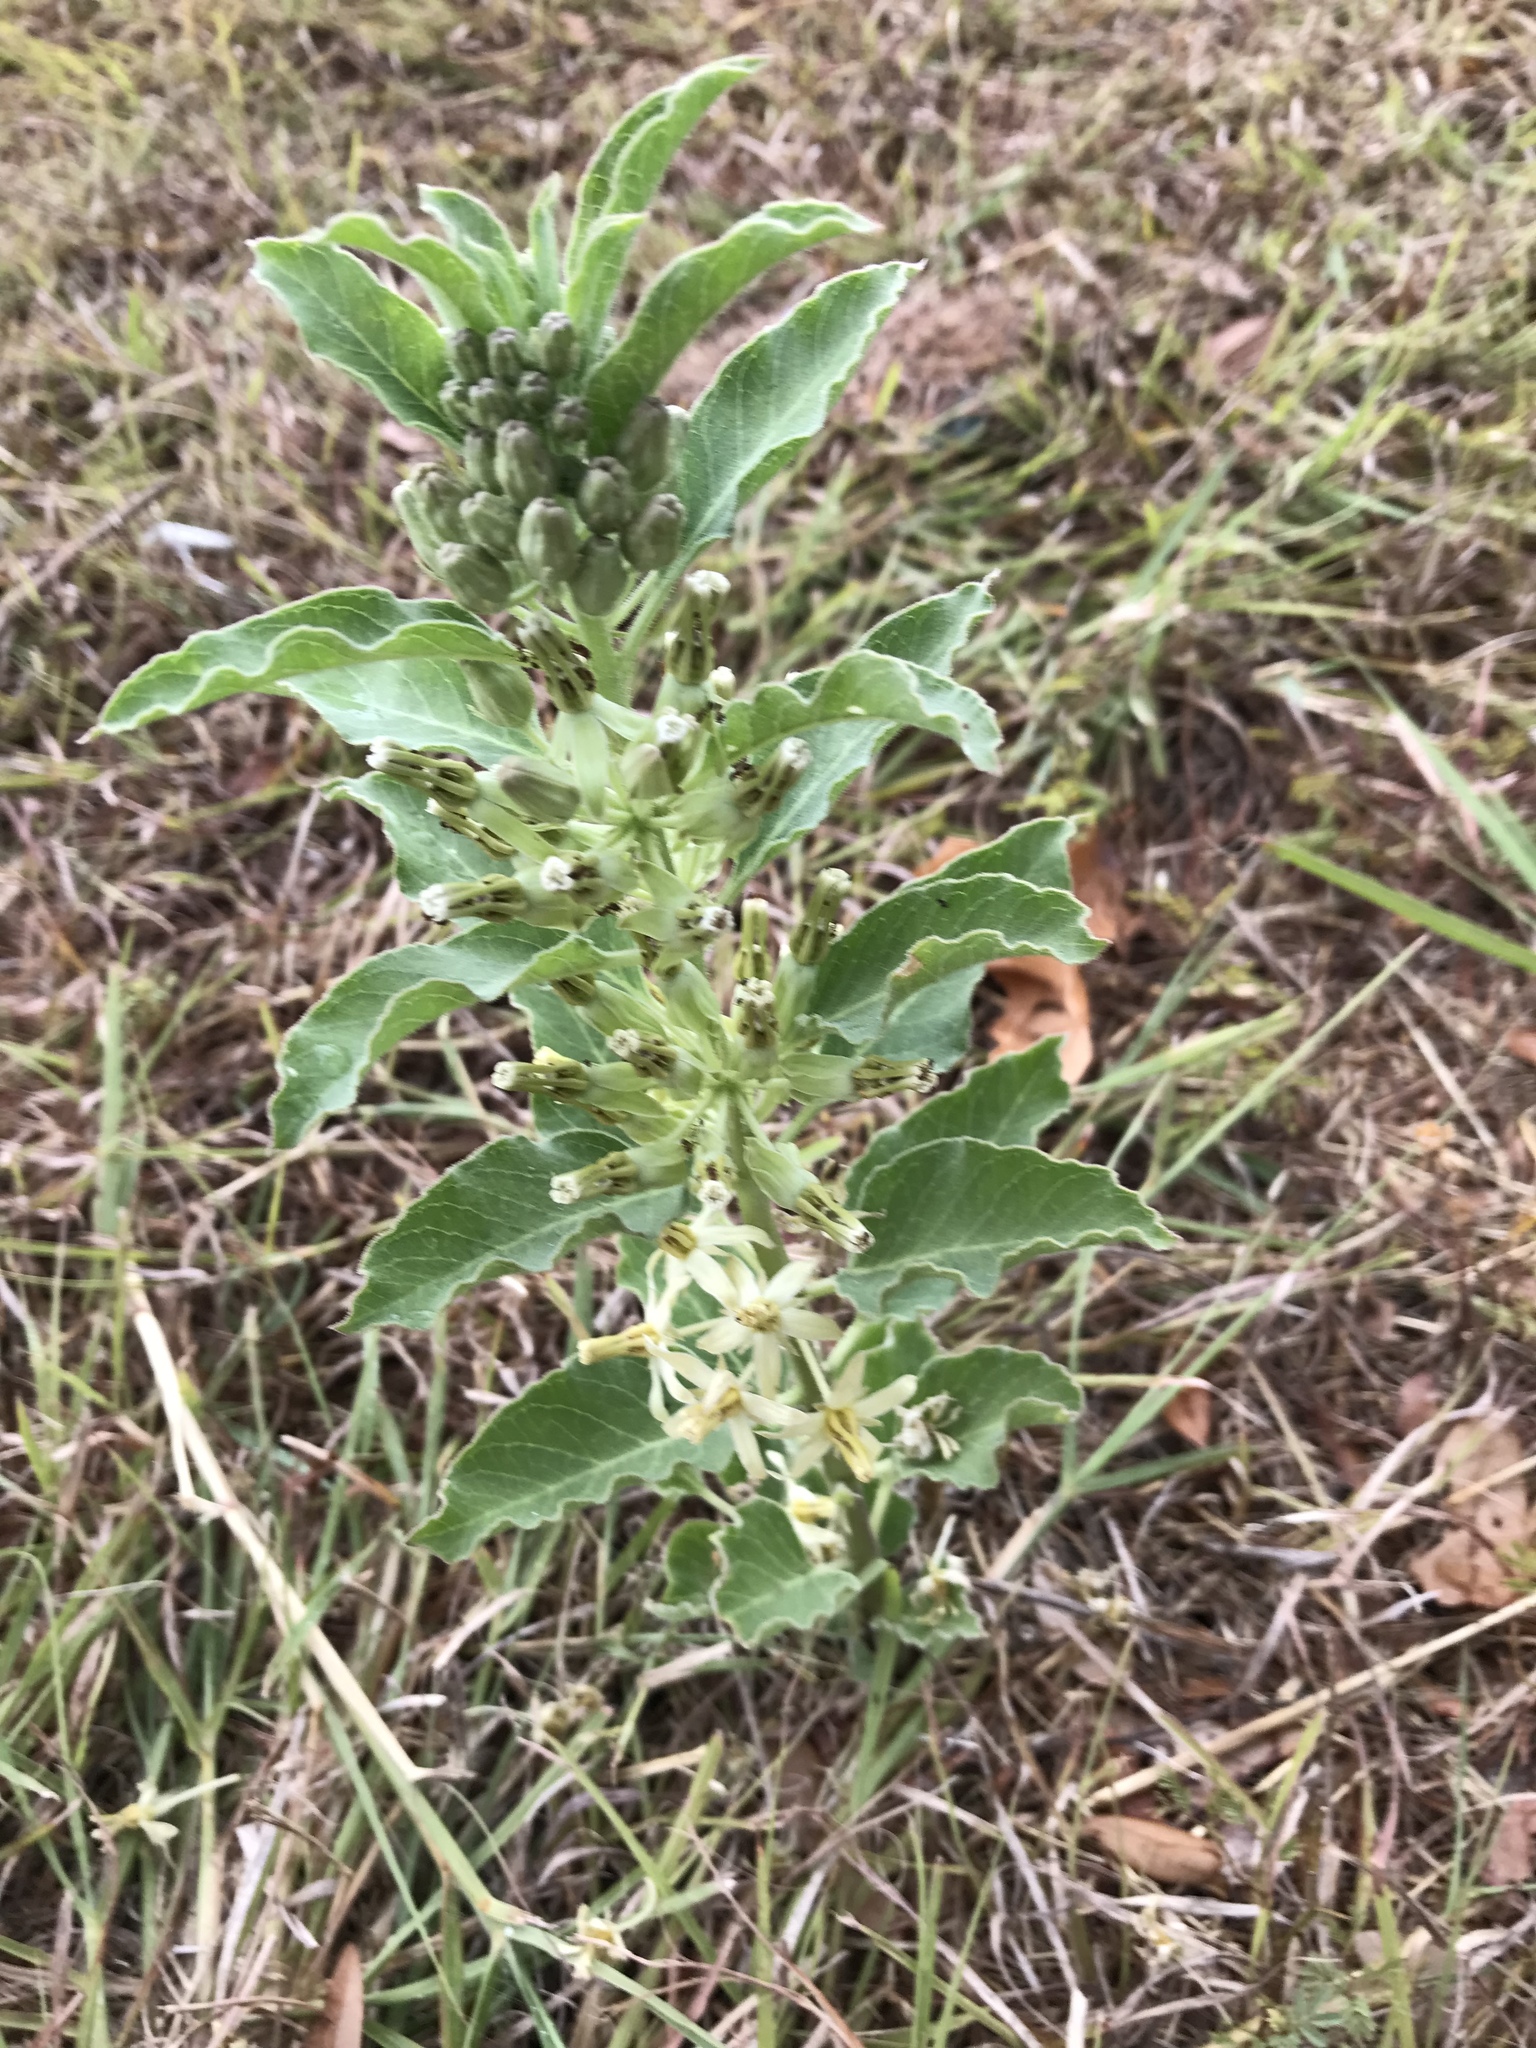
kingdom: Plantae
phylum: Tracheophyta
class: Magnoliopsida
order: Gentianales
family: Apocynaceae
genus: Asclepias
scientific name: Asclepias oenotheroides
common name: Zizotes milkweed
